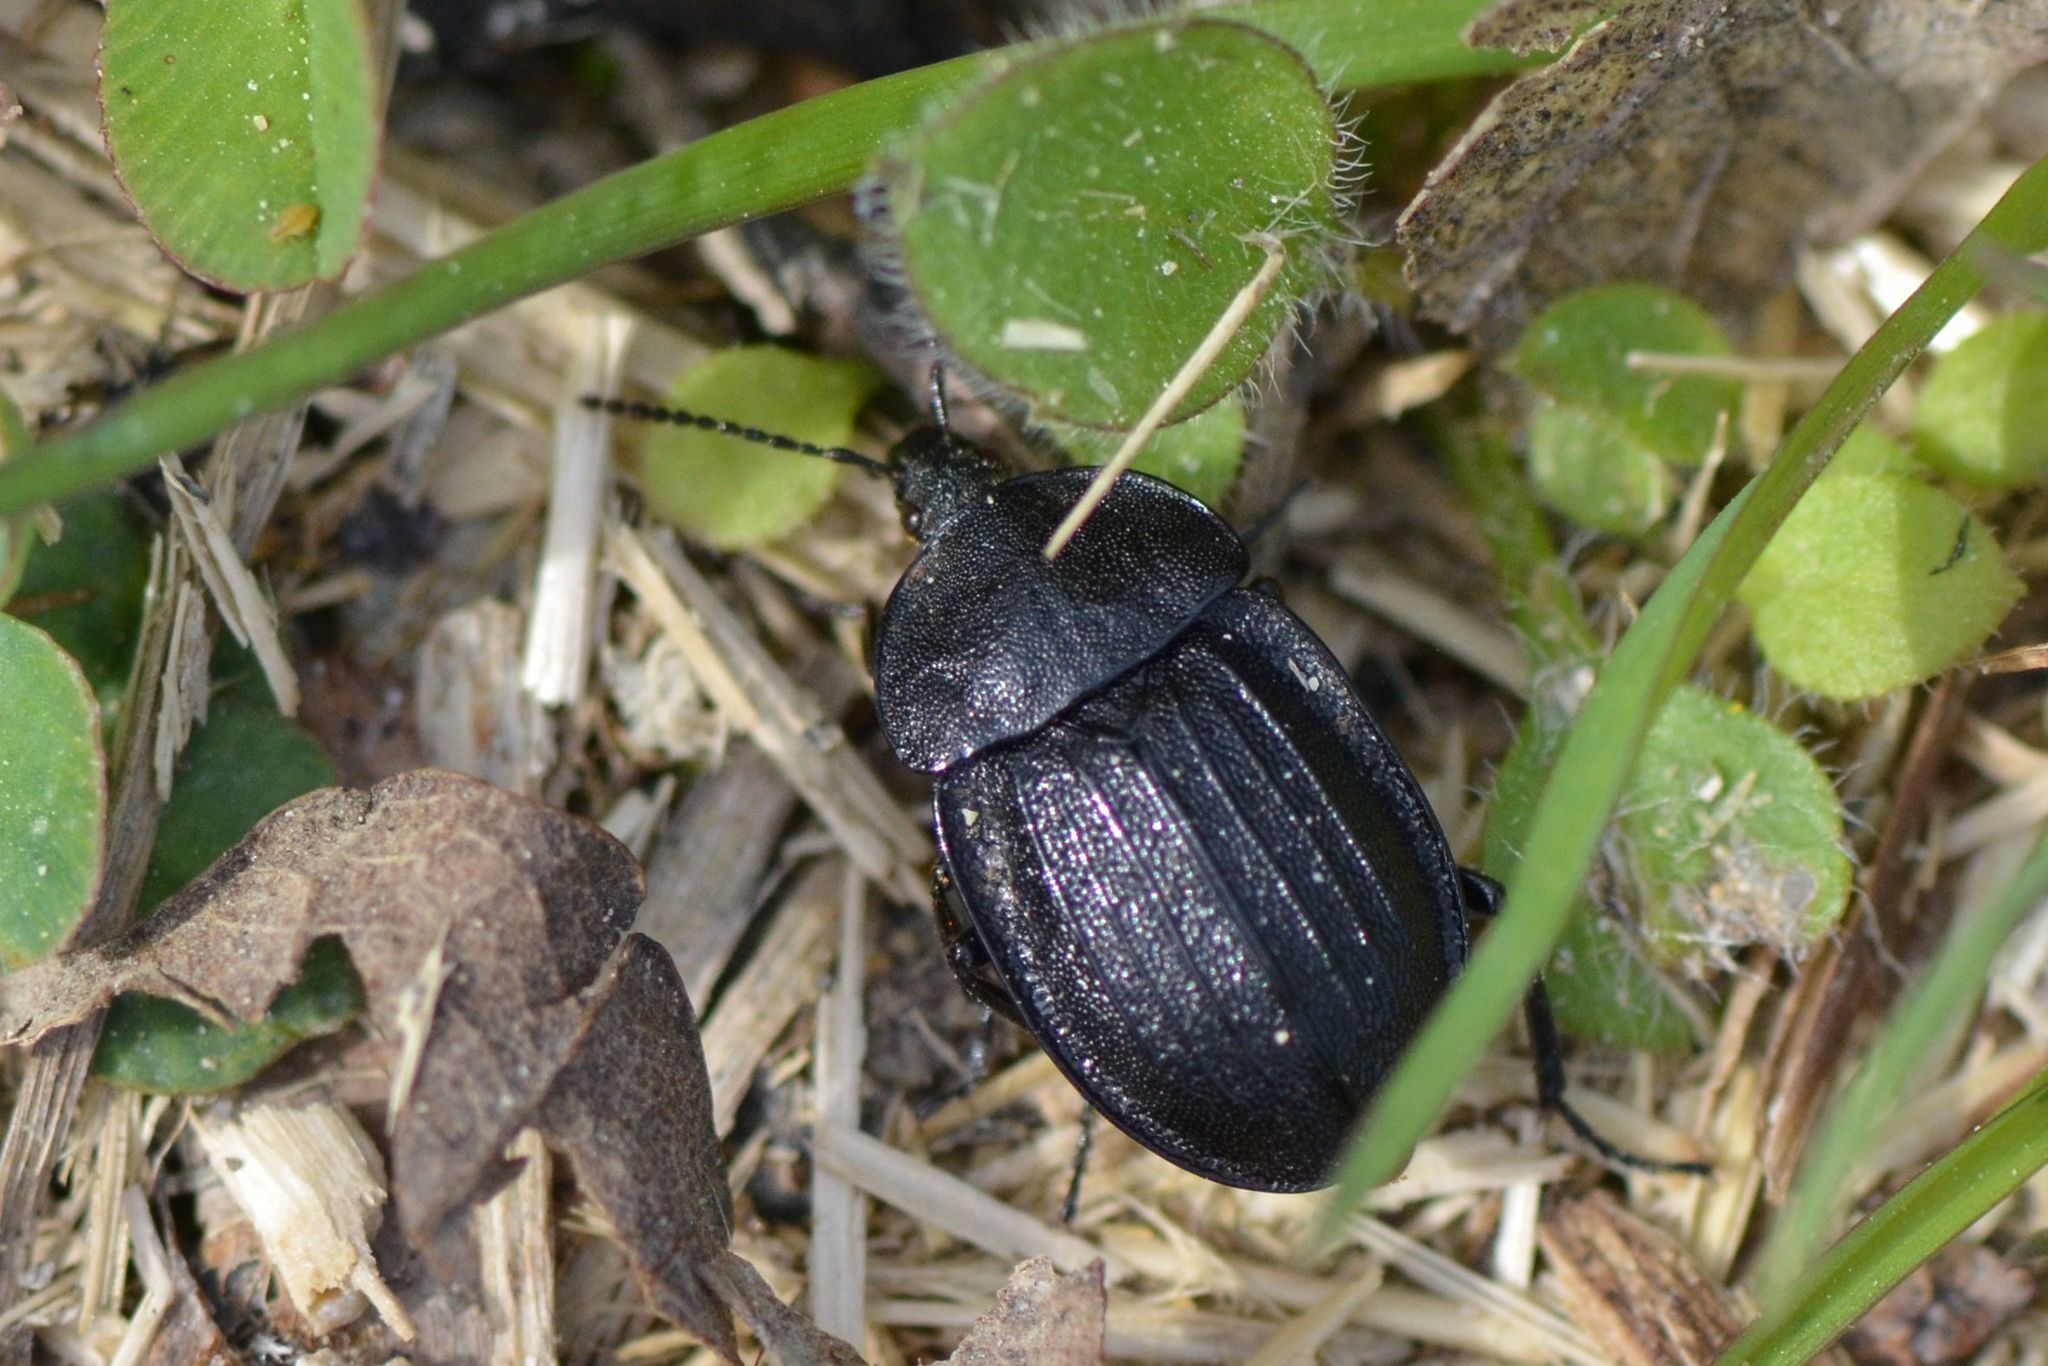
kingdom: Animalia
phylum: Arthropoda
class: Insecta
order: Coleoptera
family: Staphylinidae
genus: Silpha
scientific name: Silpha atrata
